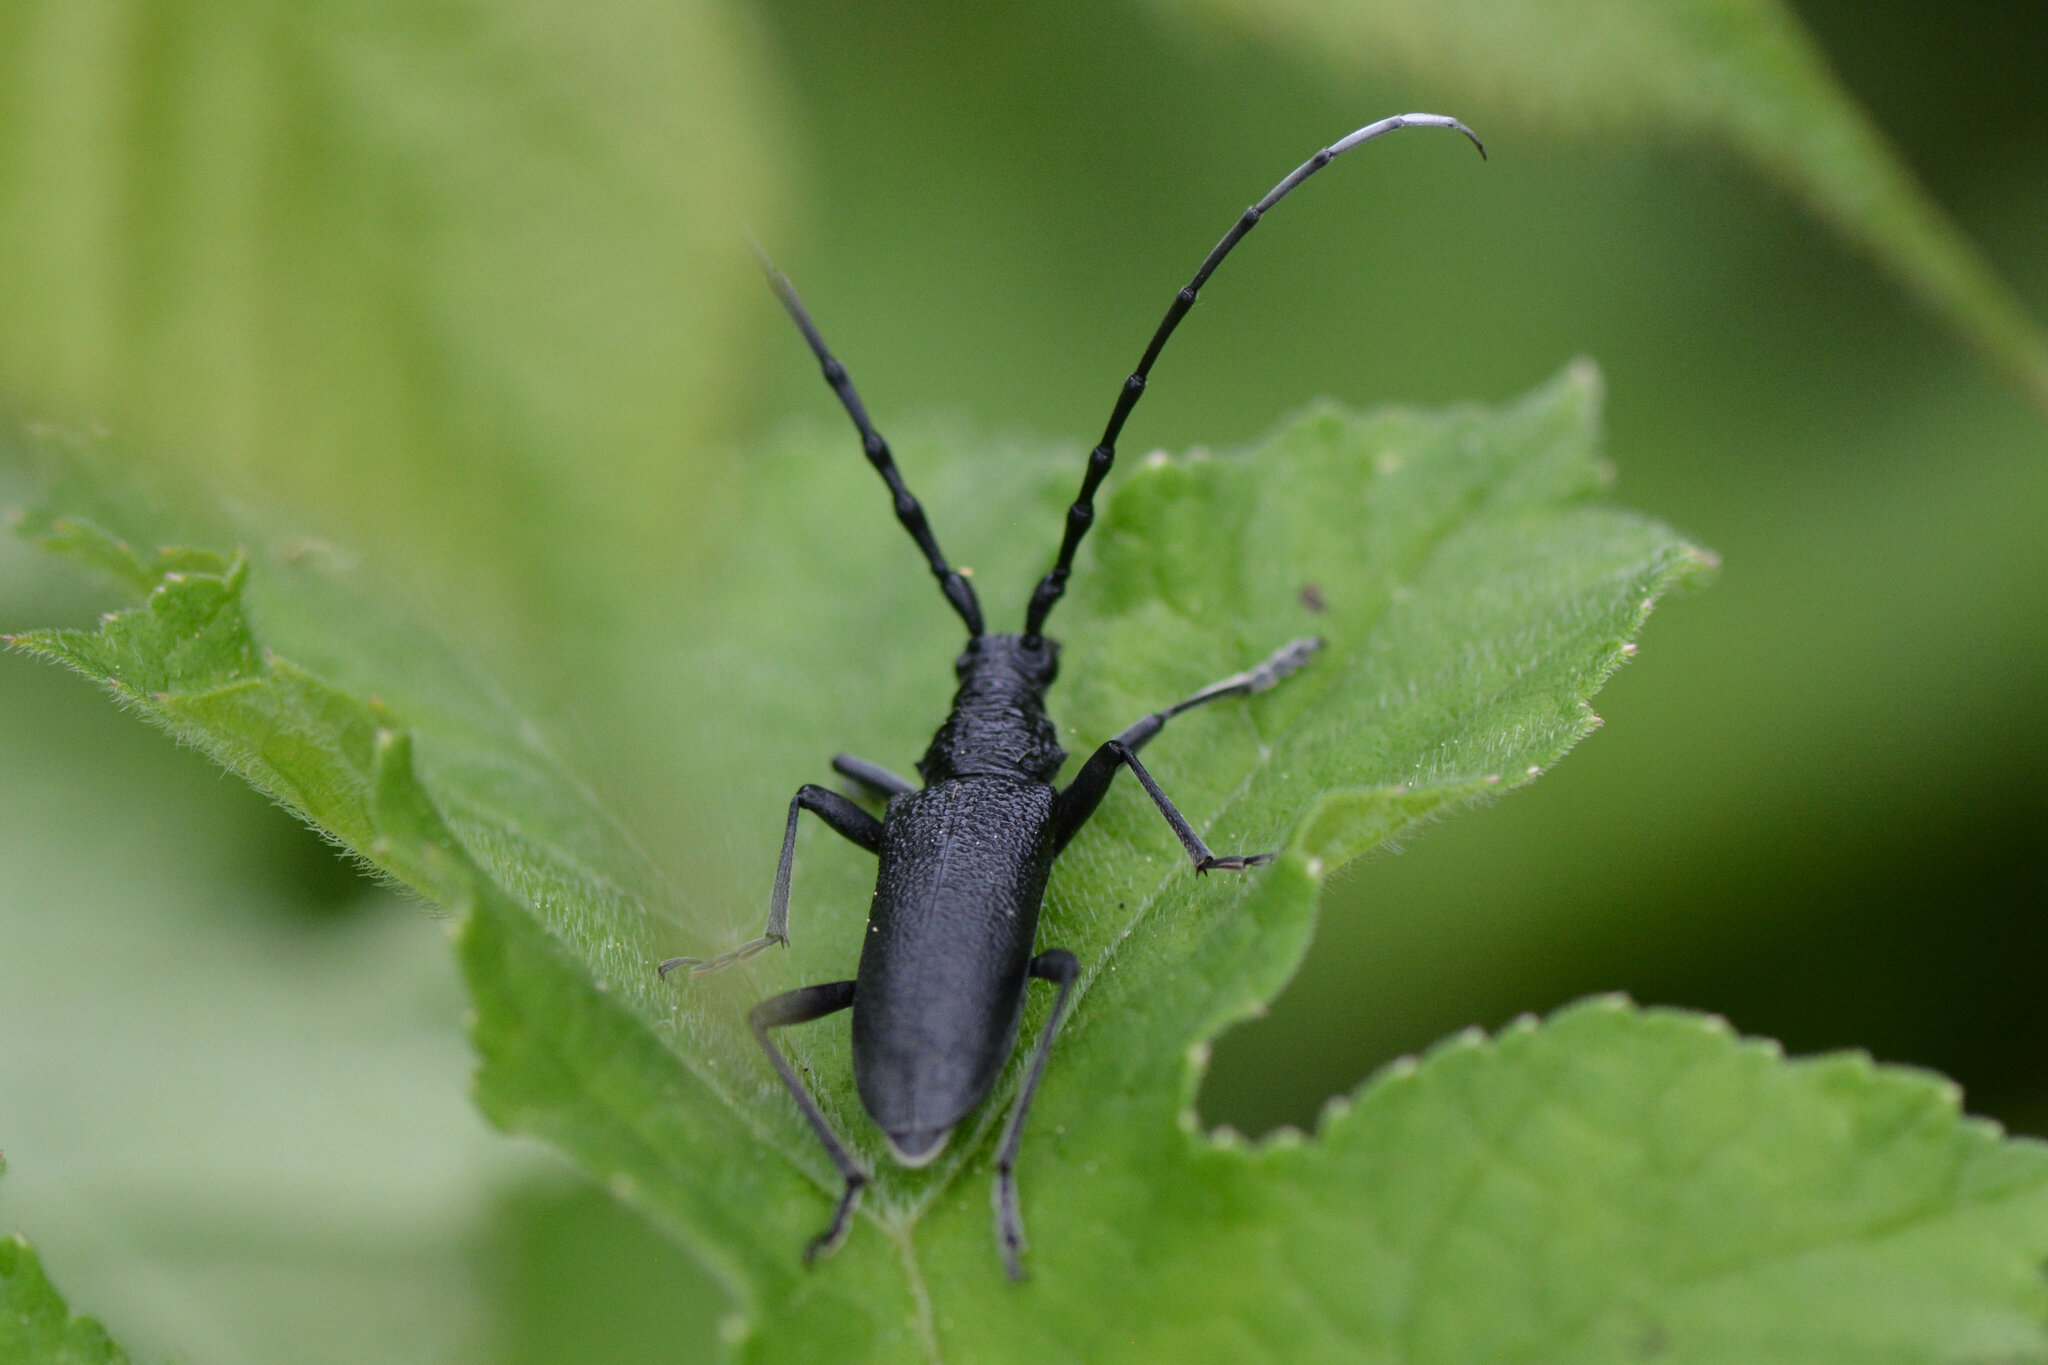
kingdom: Animalia
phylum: Arthropoda
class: Insecta
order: Coleoptera
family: Cerambycidae
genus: Cerambyx
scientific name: Cerambyx scopolii
